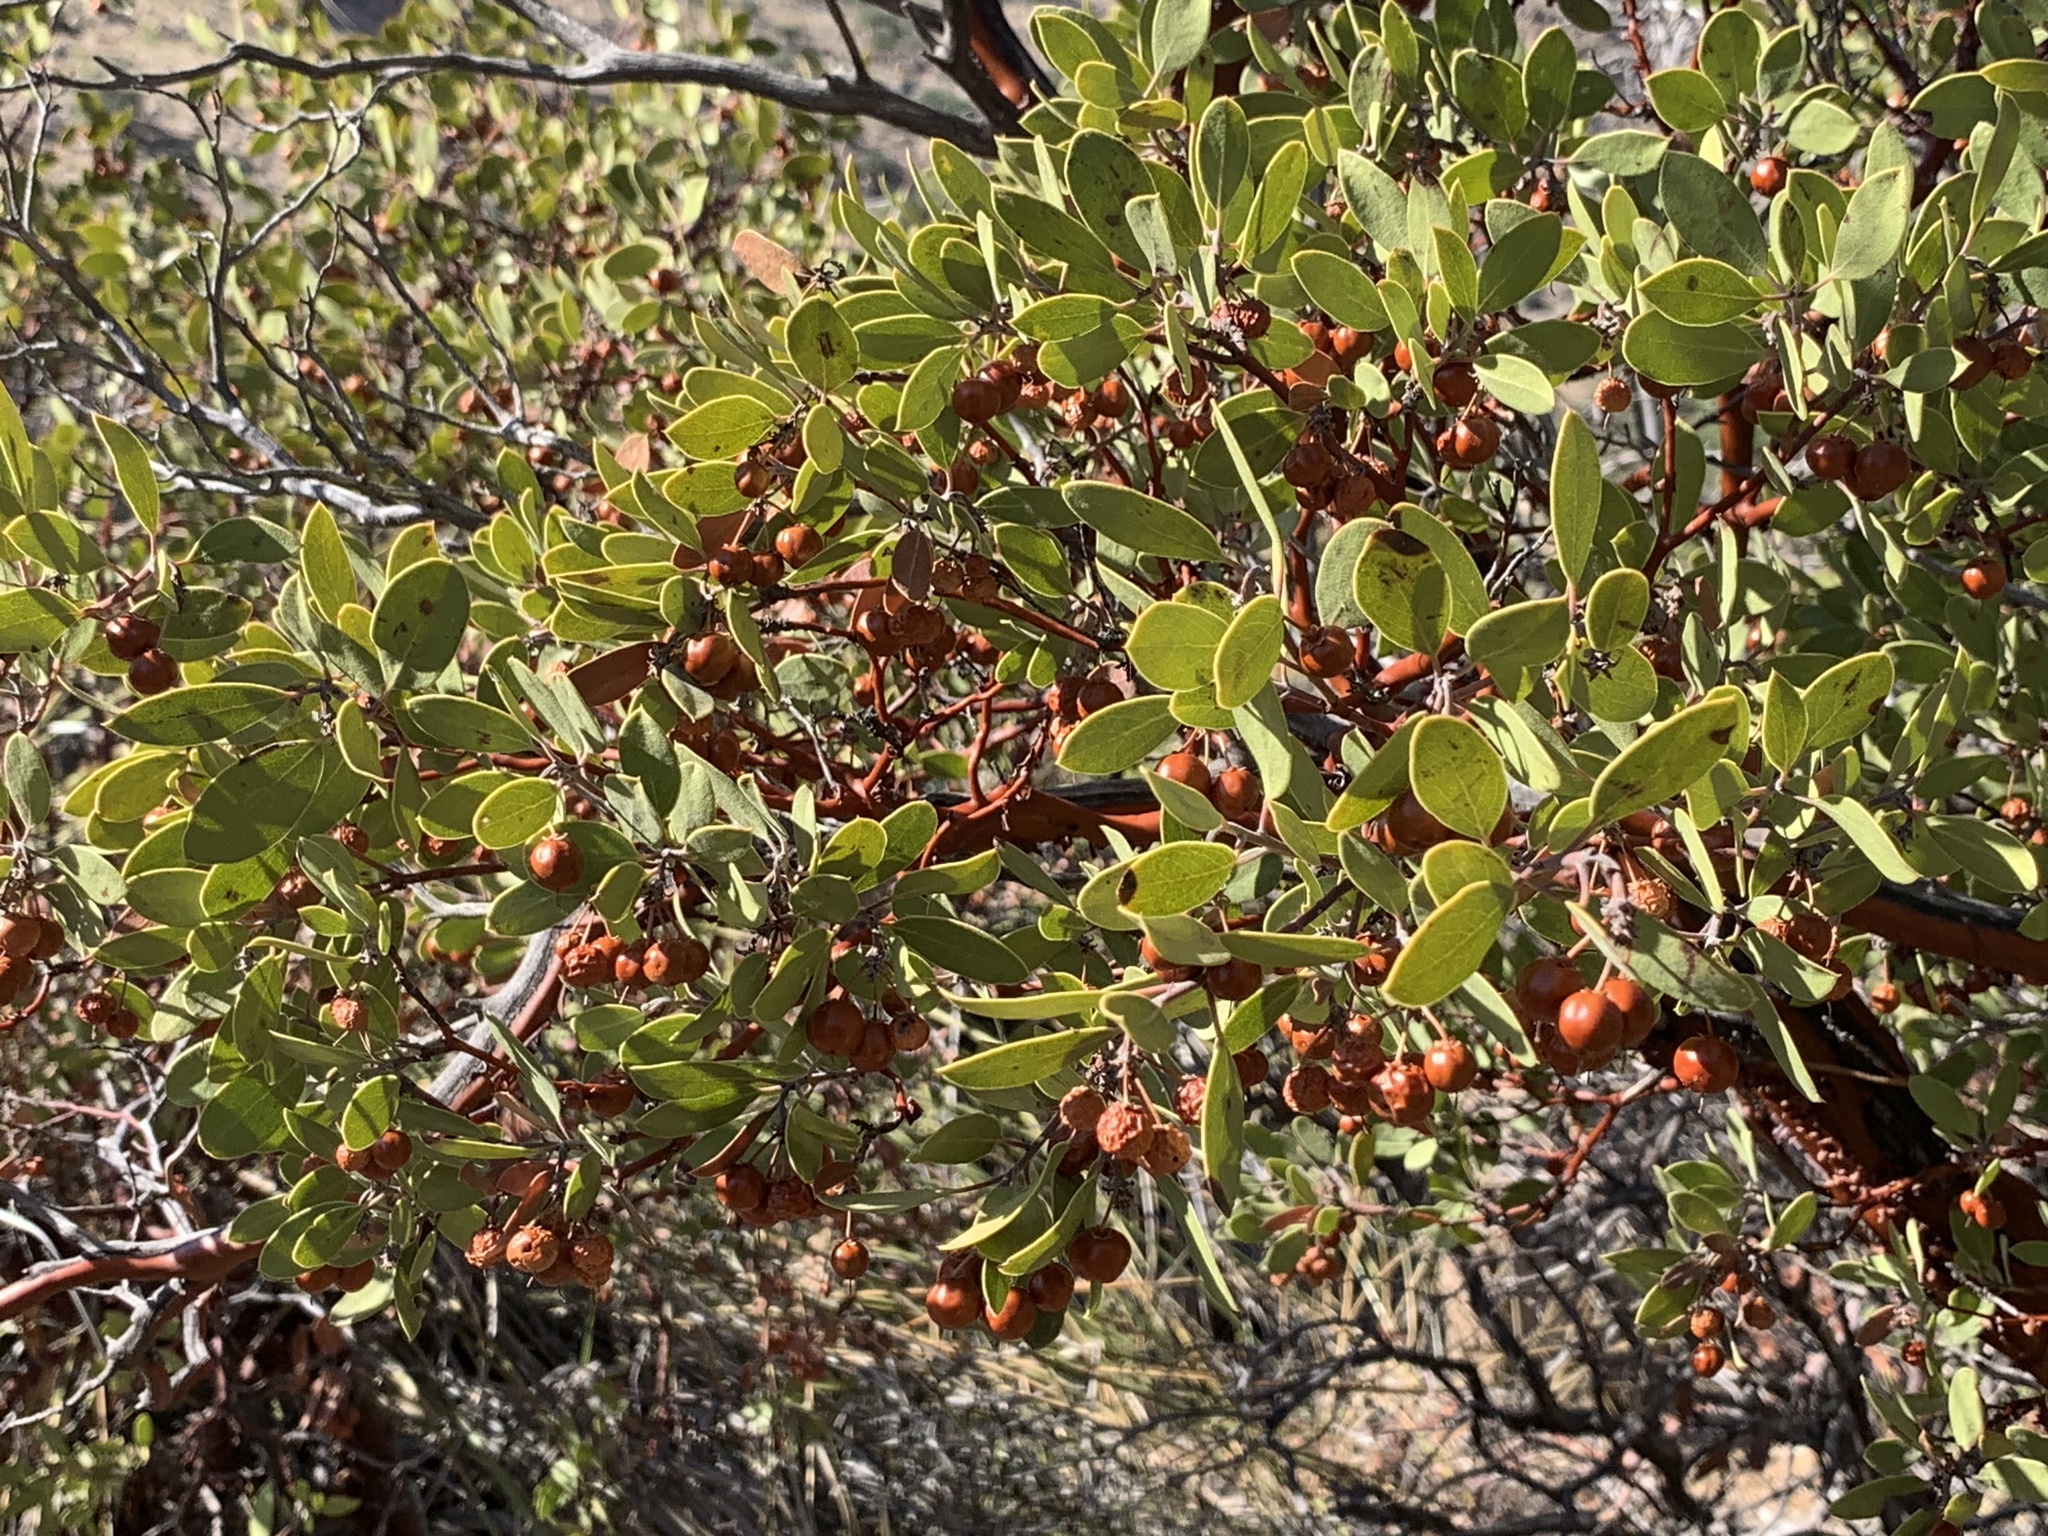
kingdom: Plantae
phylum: Tracheophyta
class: Magnoliopsida
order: Ericales
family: Ericaceae
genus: Arctostaphylos
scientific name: Arctostaphylos pungens
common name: Mexican manzanita
